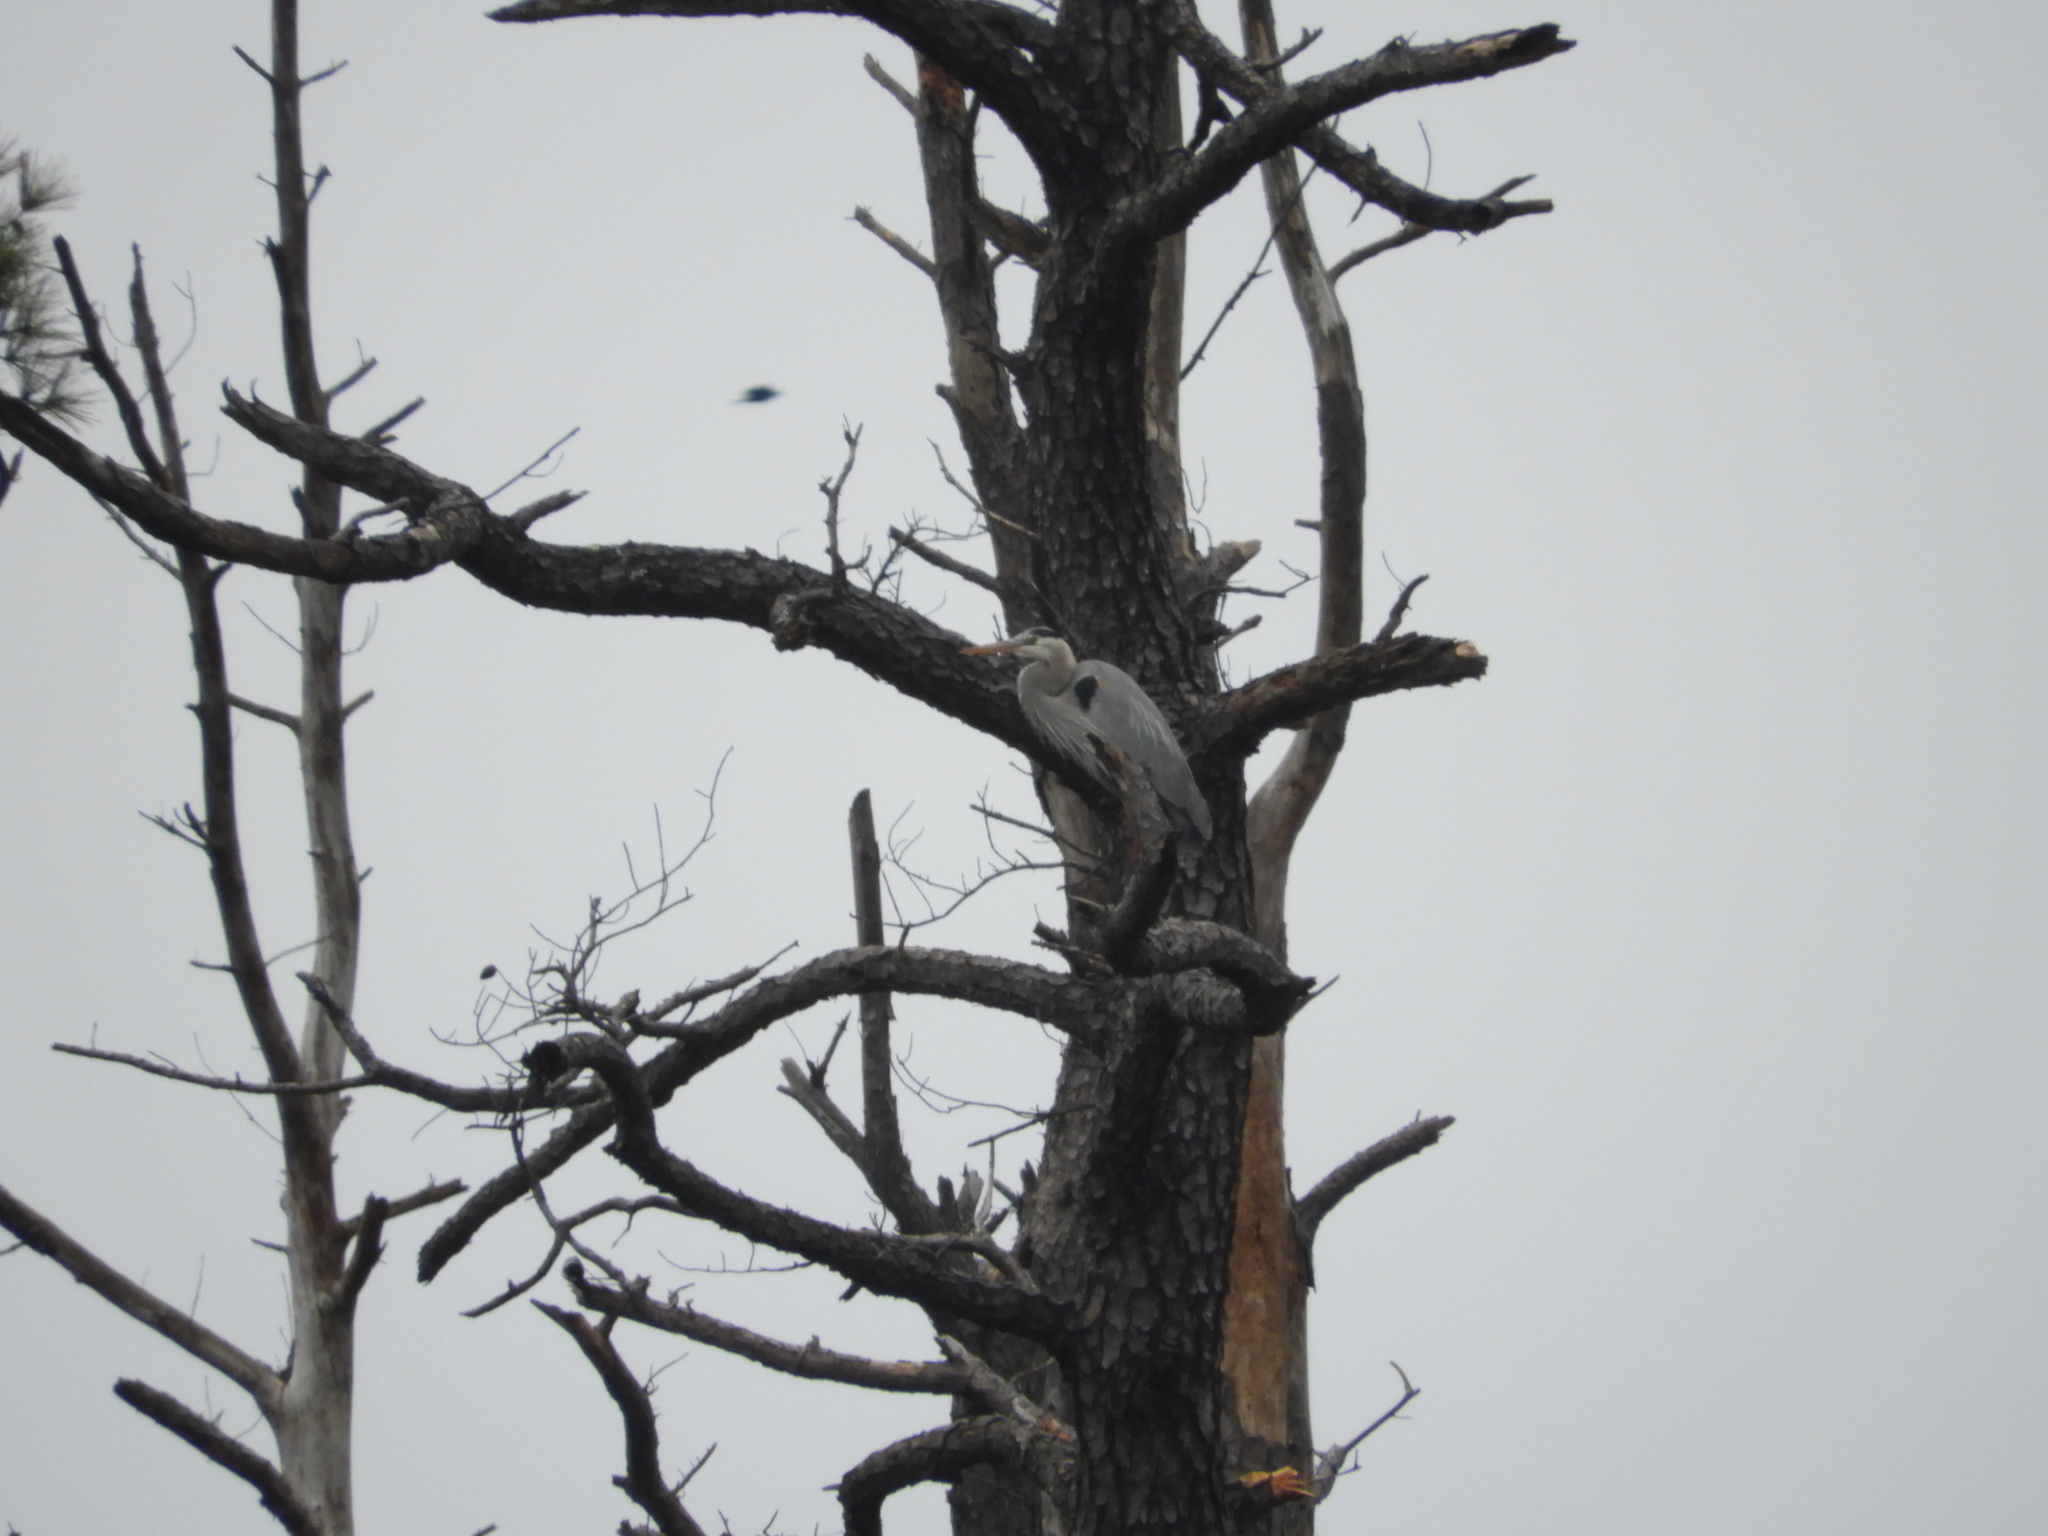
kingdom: Animalia
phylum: Chordata
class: Aves
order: Pelecaniformes
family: Ardeidae
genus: Ardea
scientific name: Ardea herodias
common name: Great blue heron
